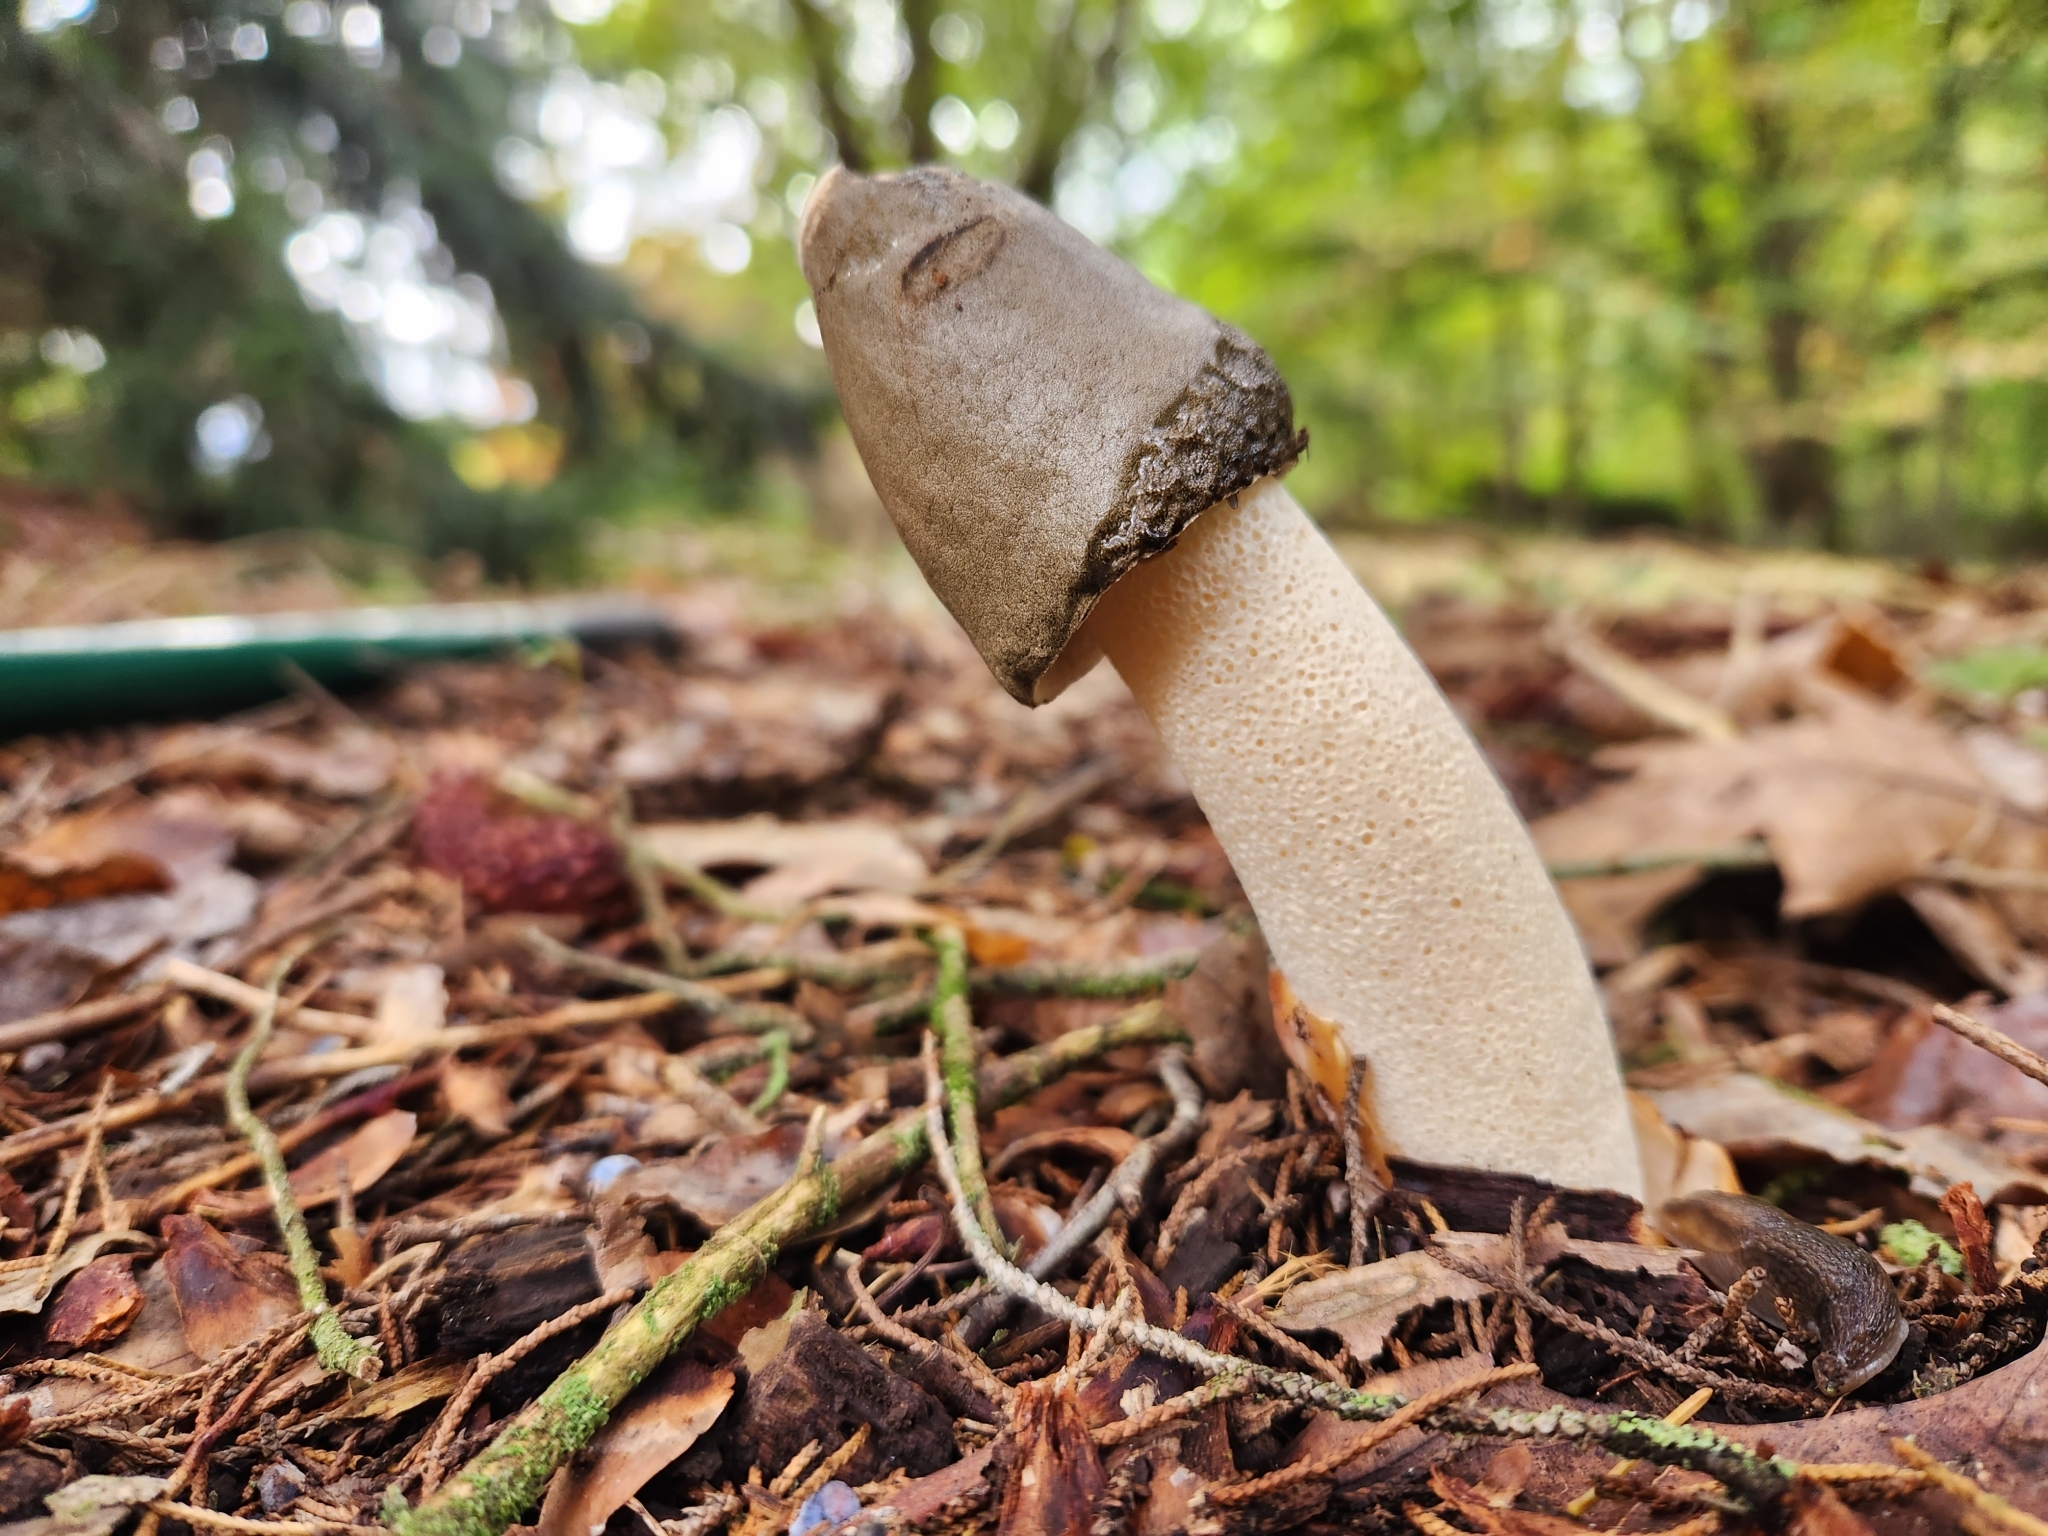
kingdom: Fungi
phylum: Basidiomycota
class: Agaricomycetes
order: Phallales
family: Phallaceae
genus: Phallus
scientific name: Phallus ravenelii
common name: Ravenel's stinkhorn
